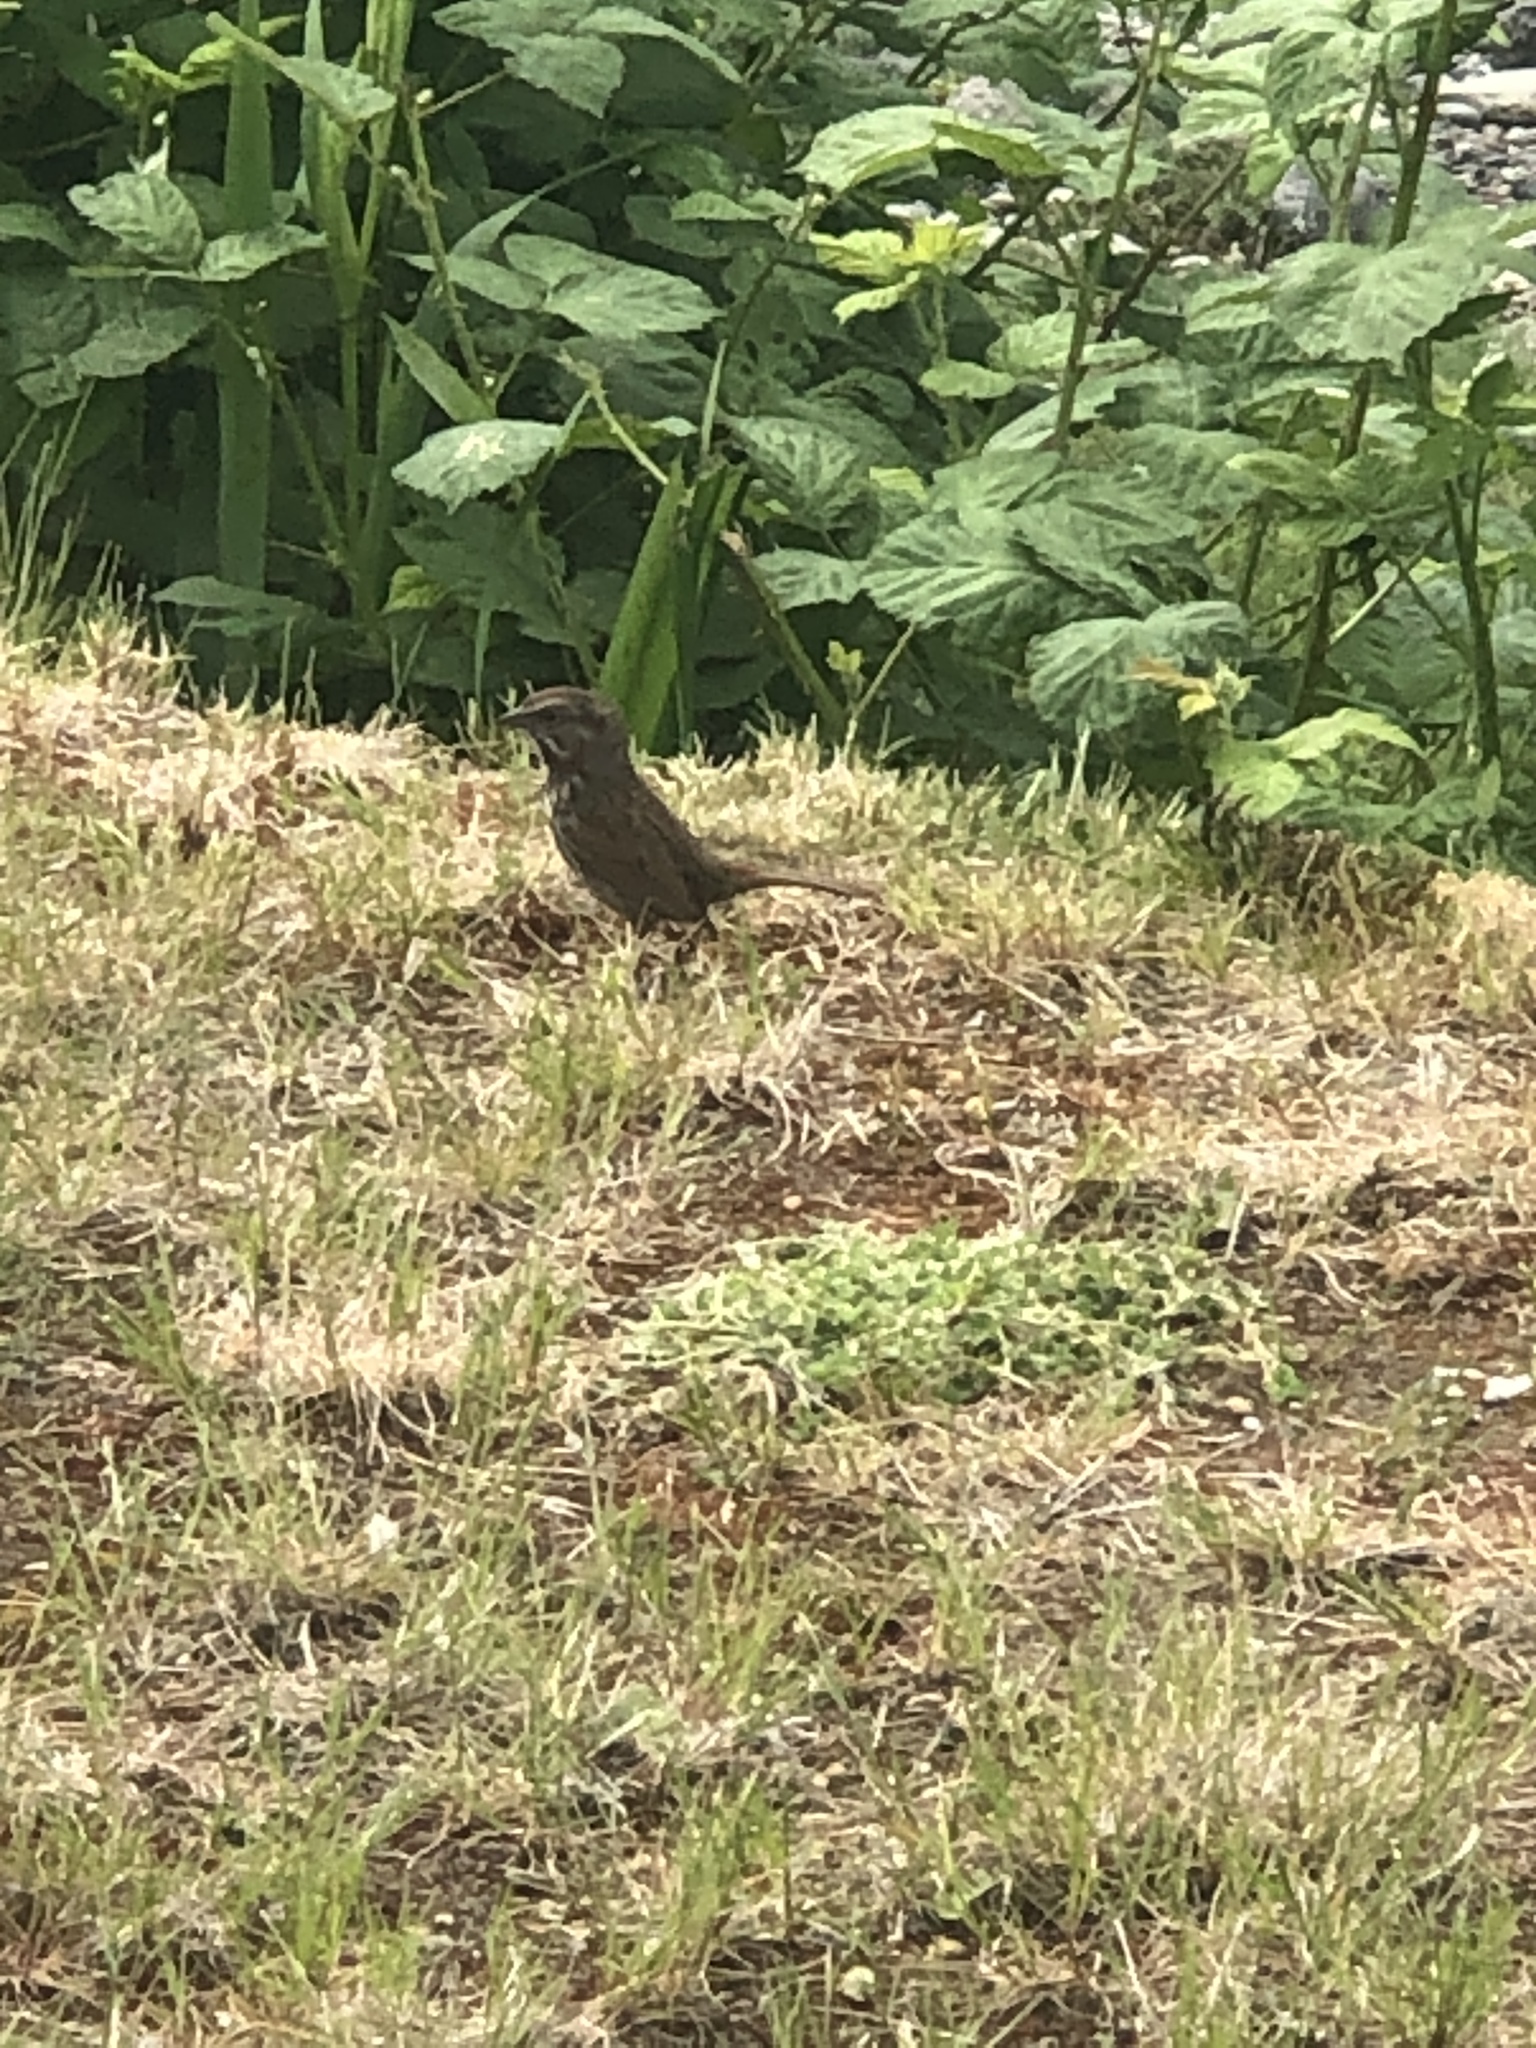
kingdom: Animalia
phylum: Chordata
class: Aves
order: Passeriformes
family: Passerellidae
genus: Melospiza
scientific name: Melospiza melodia
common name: Song sparrow
